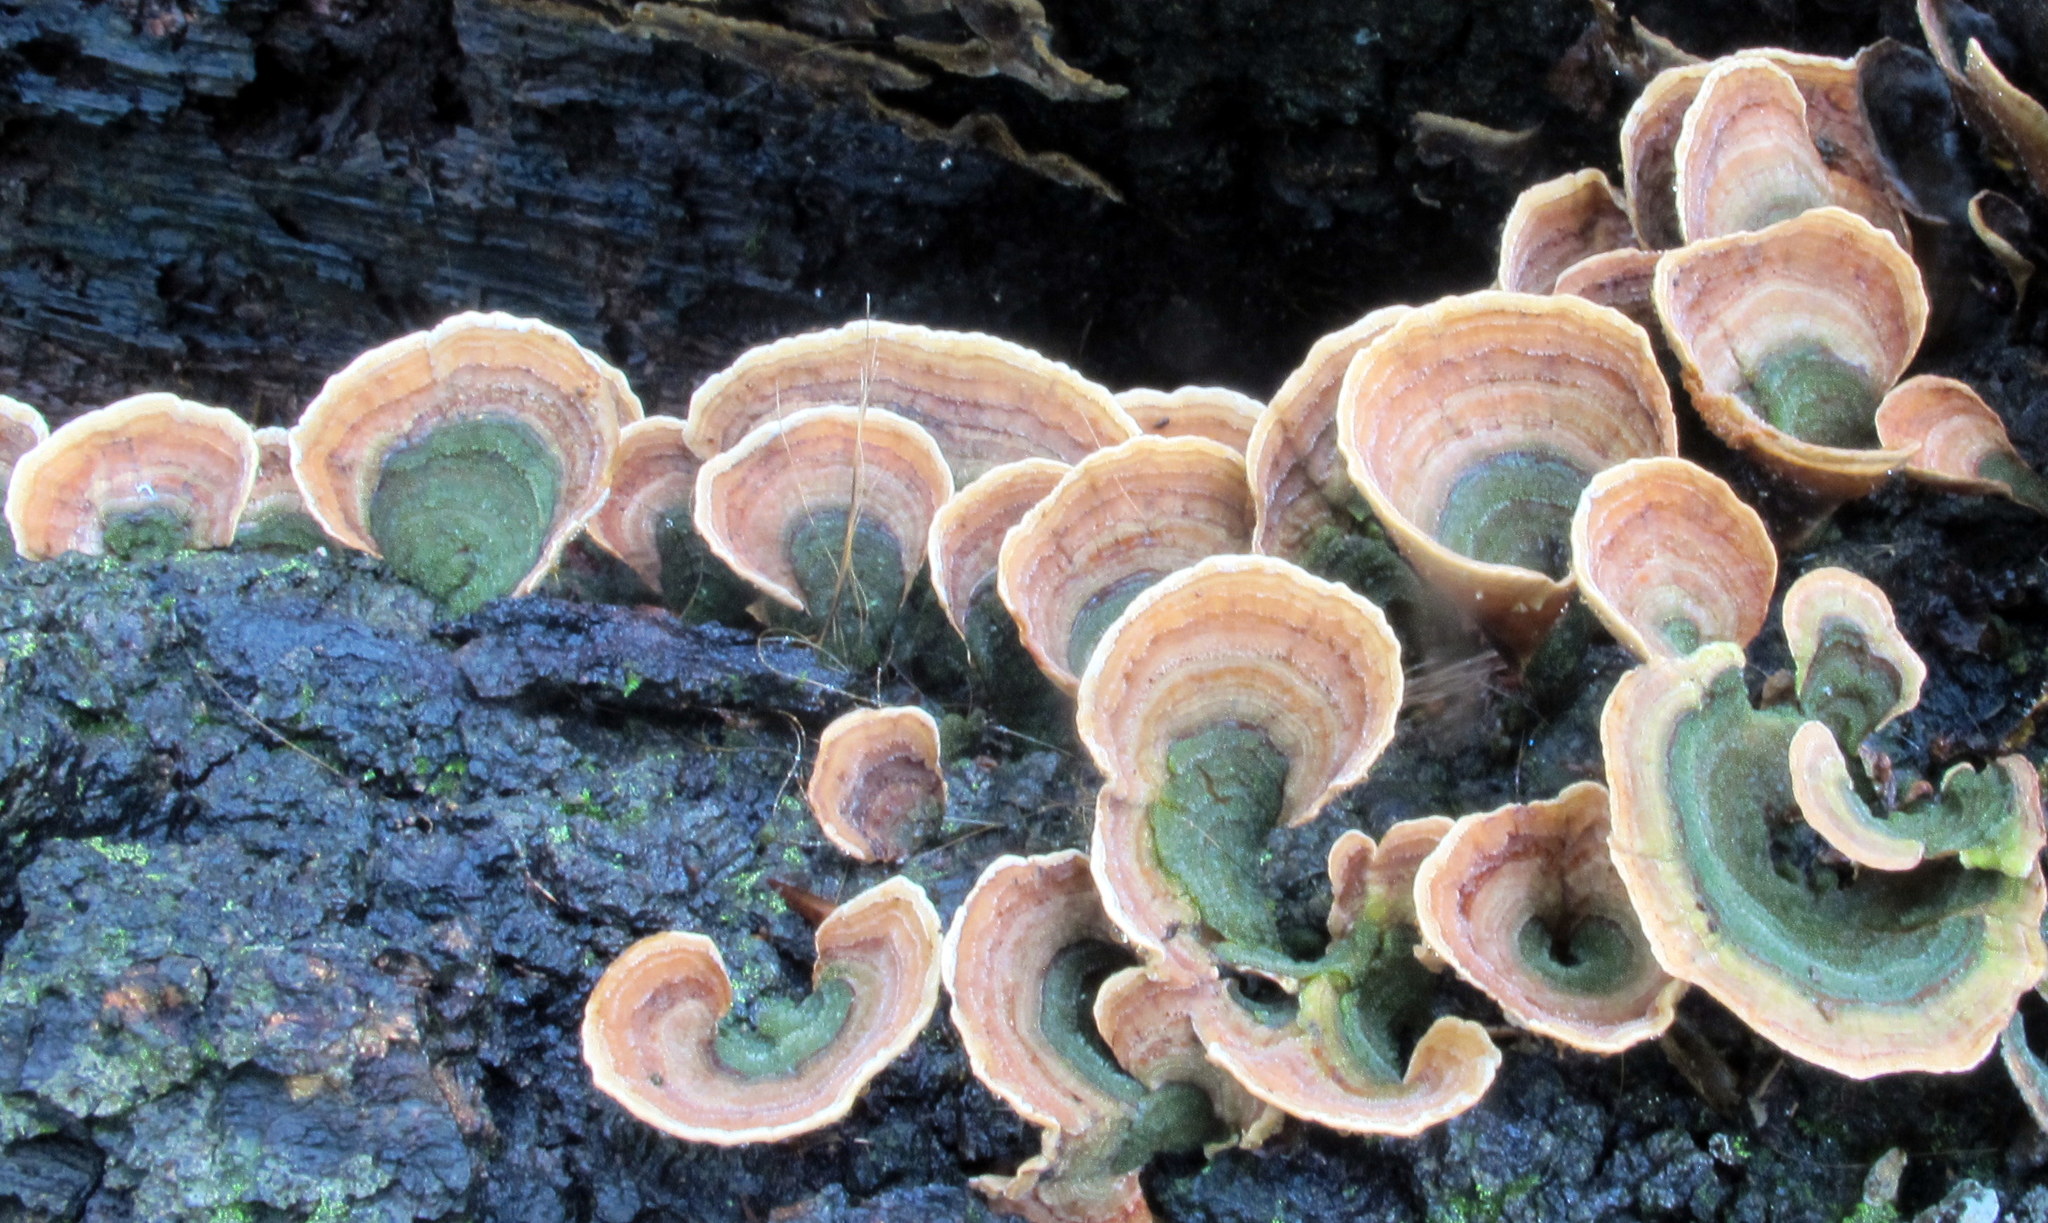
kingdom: Fungi
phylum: Basidiomycota
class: Agaricomycetes
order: Russulales
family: Stereaceae
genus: Stereum
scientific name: Stereum ostrea
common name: False turkeytail
